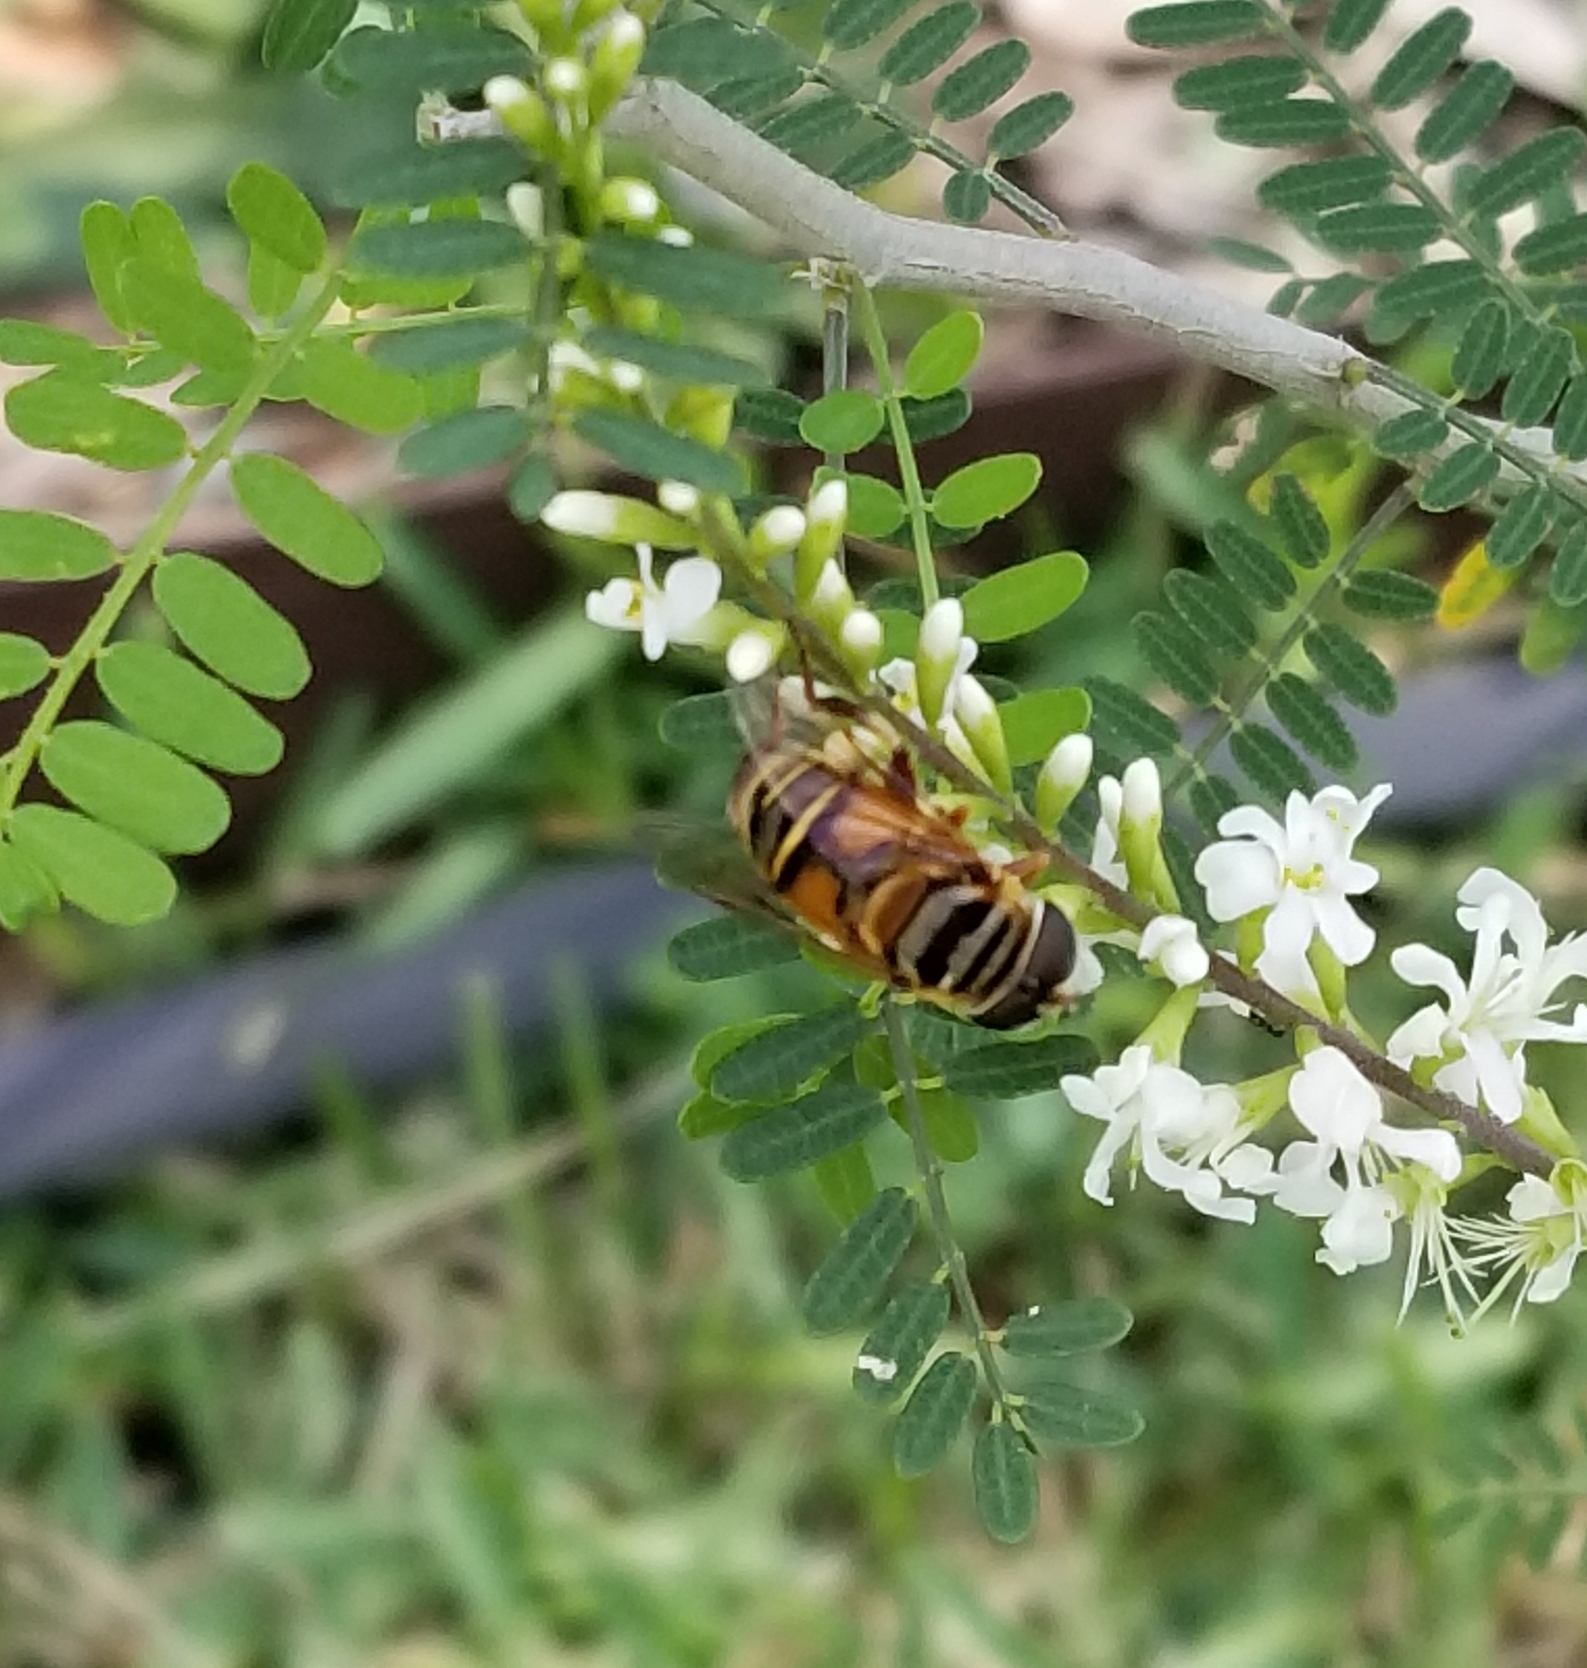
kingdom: Animalia
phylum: Arthropoda
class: Insecta
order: Diptera
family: Syrphidae
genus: Palpada
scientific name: Palpada vinetorum
